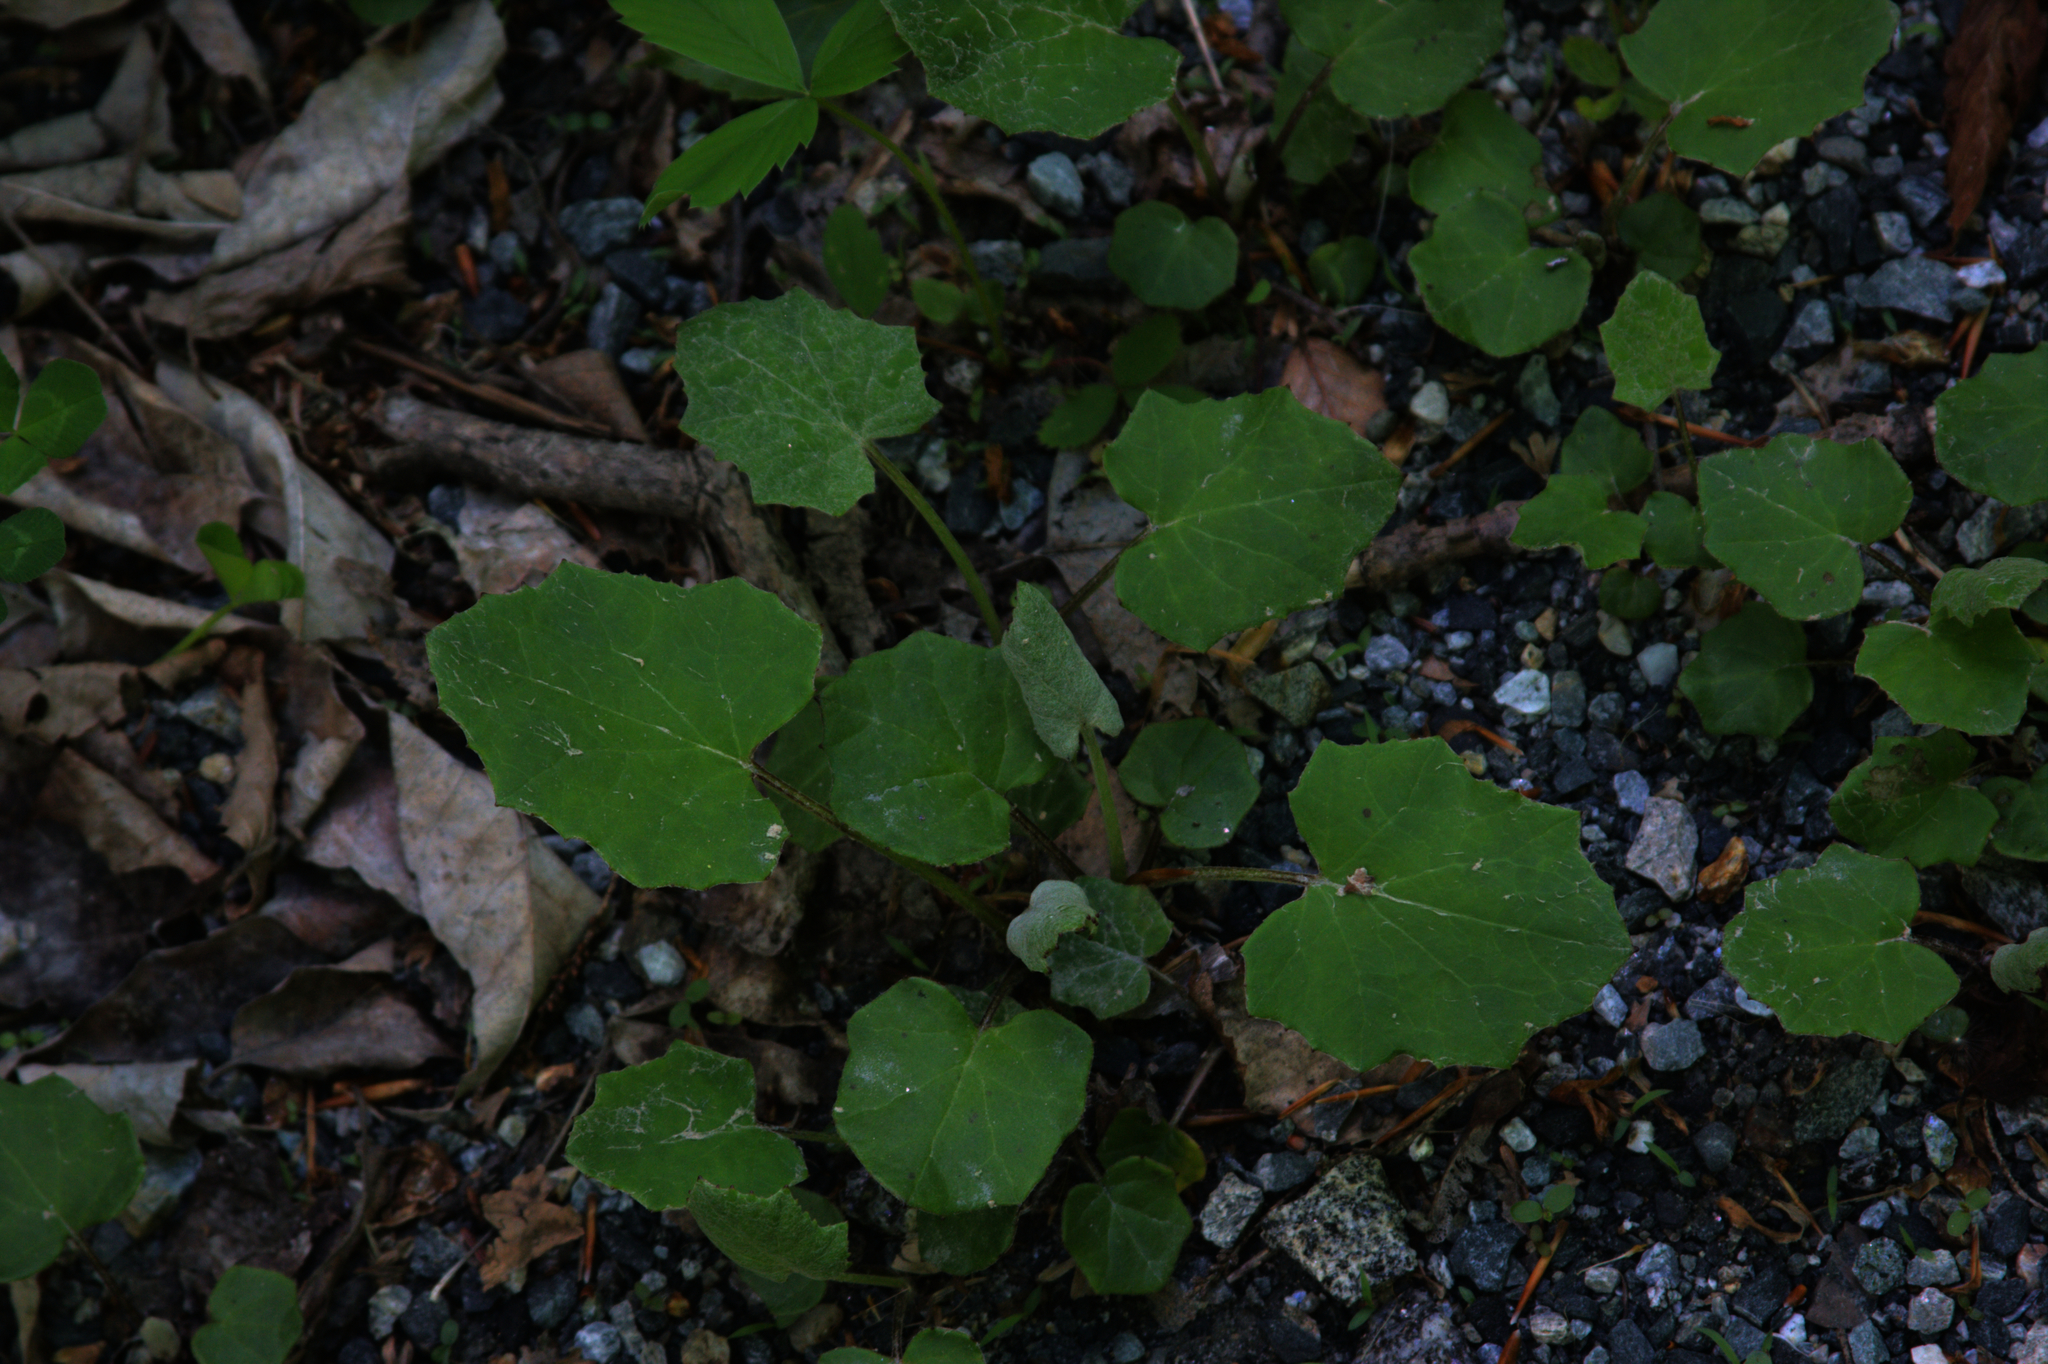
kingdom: Plantae
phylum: Tracheophyta
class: Magnoliopsida
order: Asterales
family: Asteraceae
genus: Tussilago
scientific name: Tussilago farfara
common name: Coltsfoot
